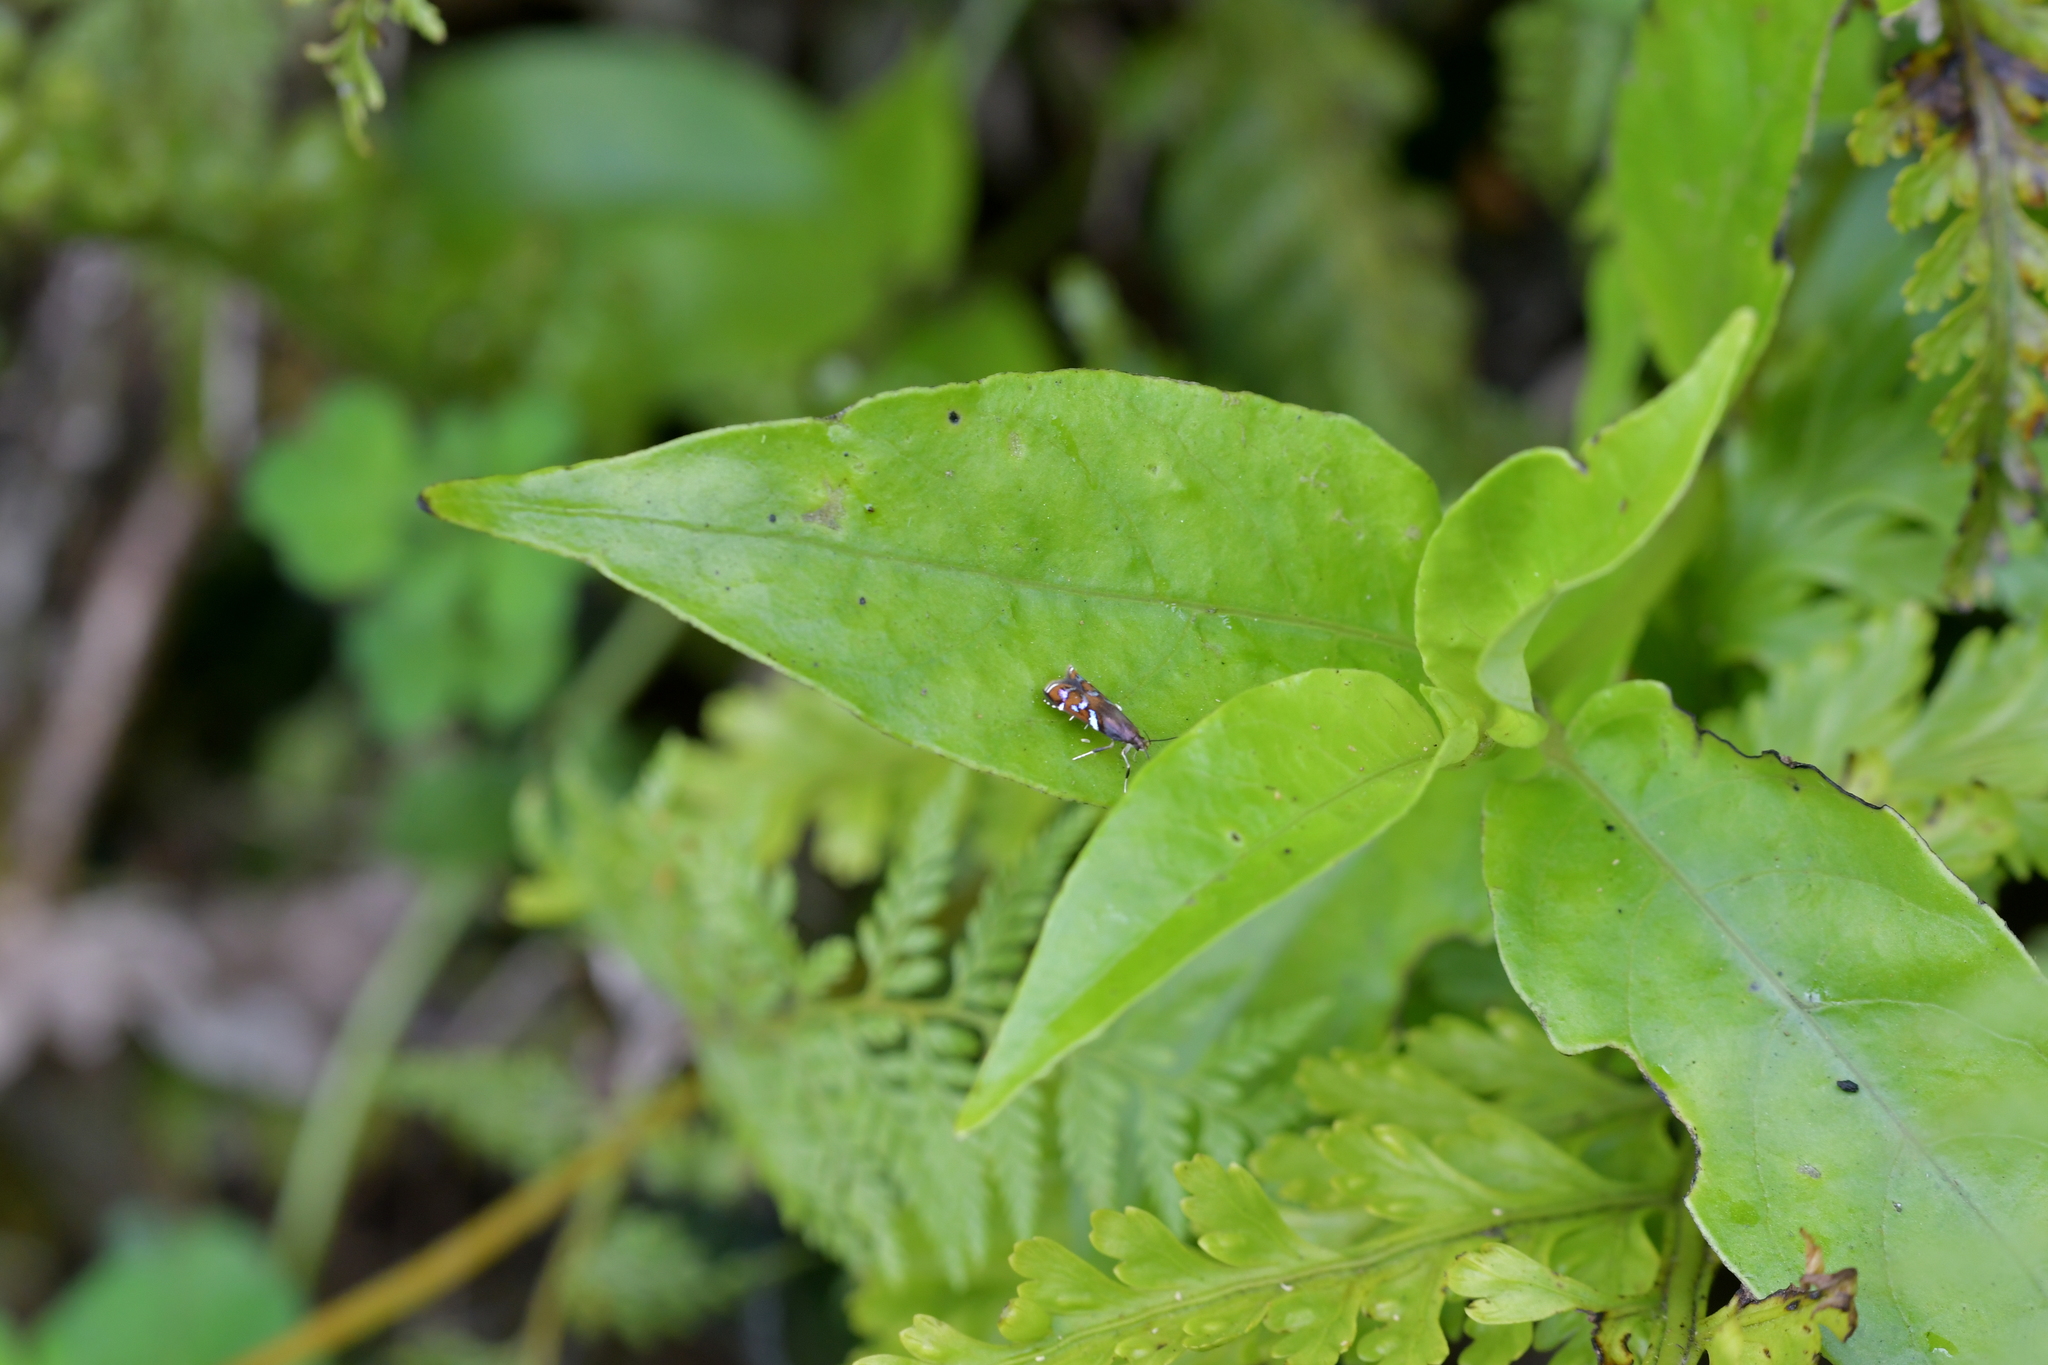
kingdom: Animalia
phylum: Arthropoda
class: Insecta
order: Lepidoptera
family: Depressariidae
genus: Compsistis
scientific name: Compsistis bifaciella
